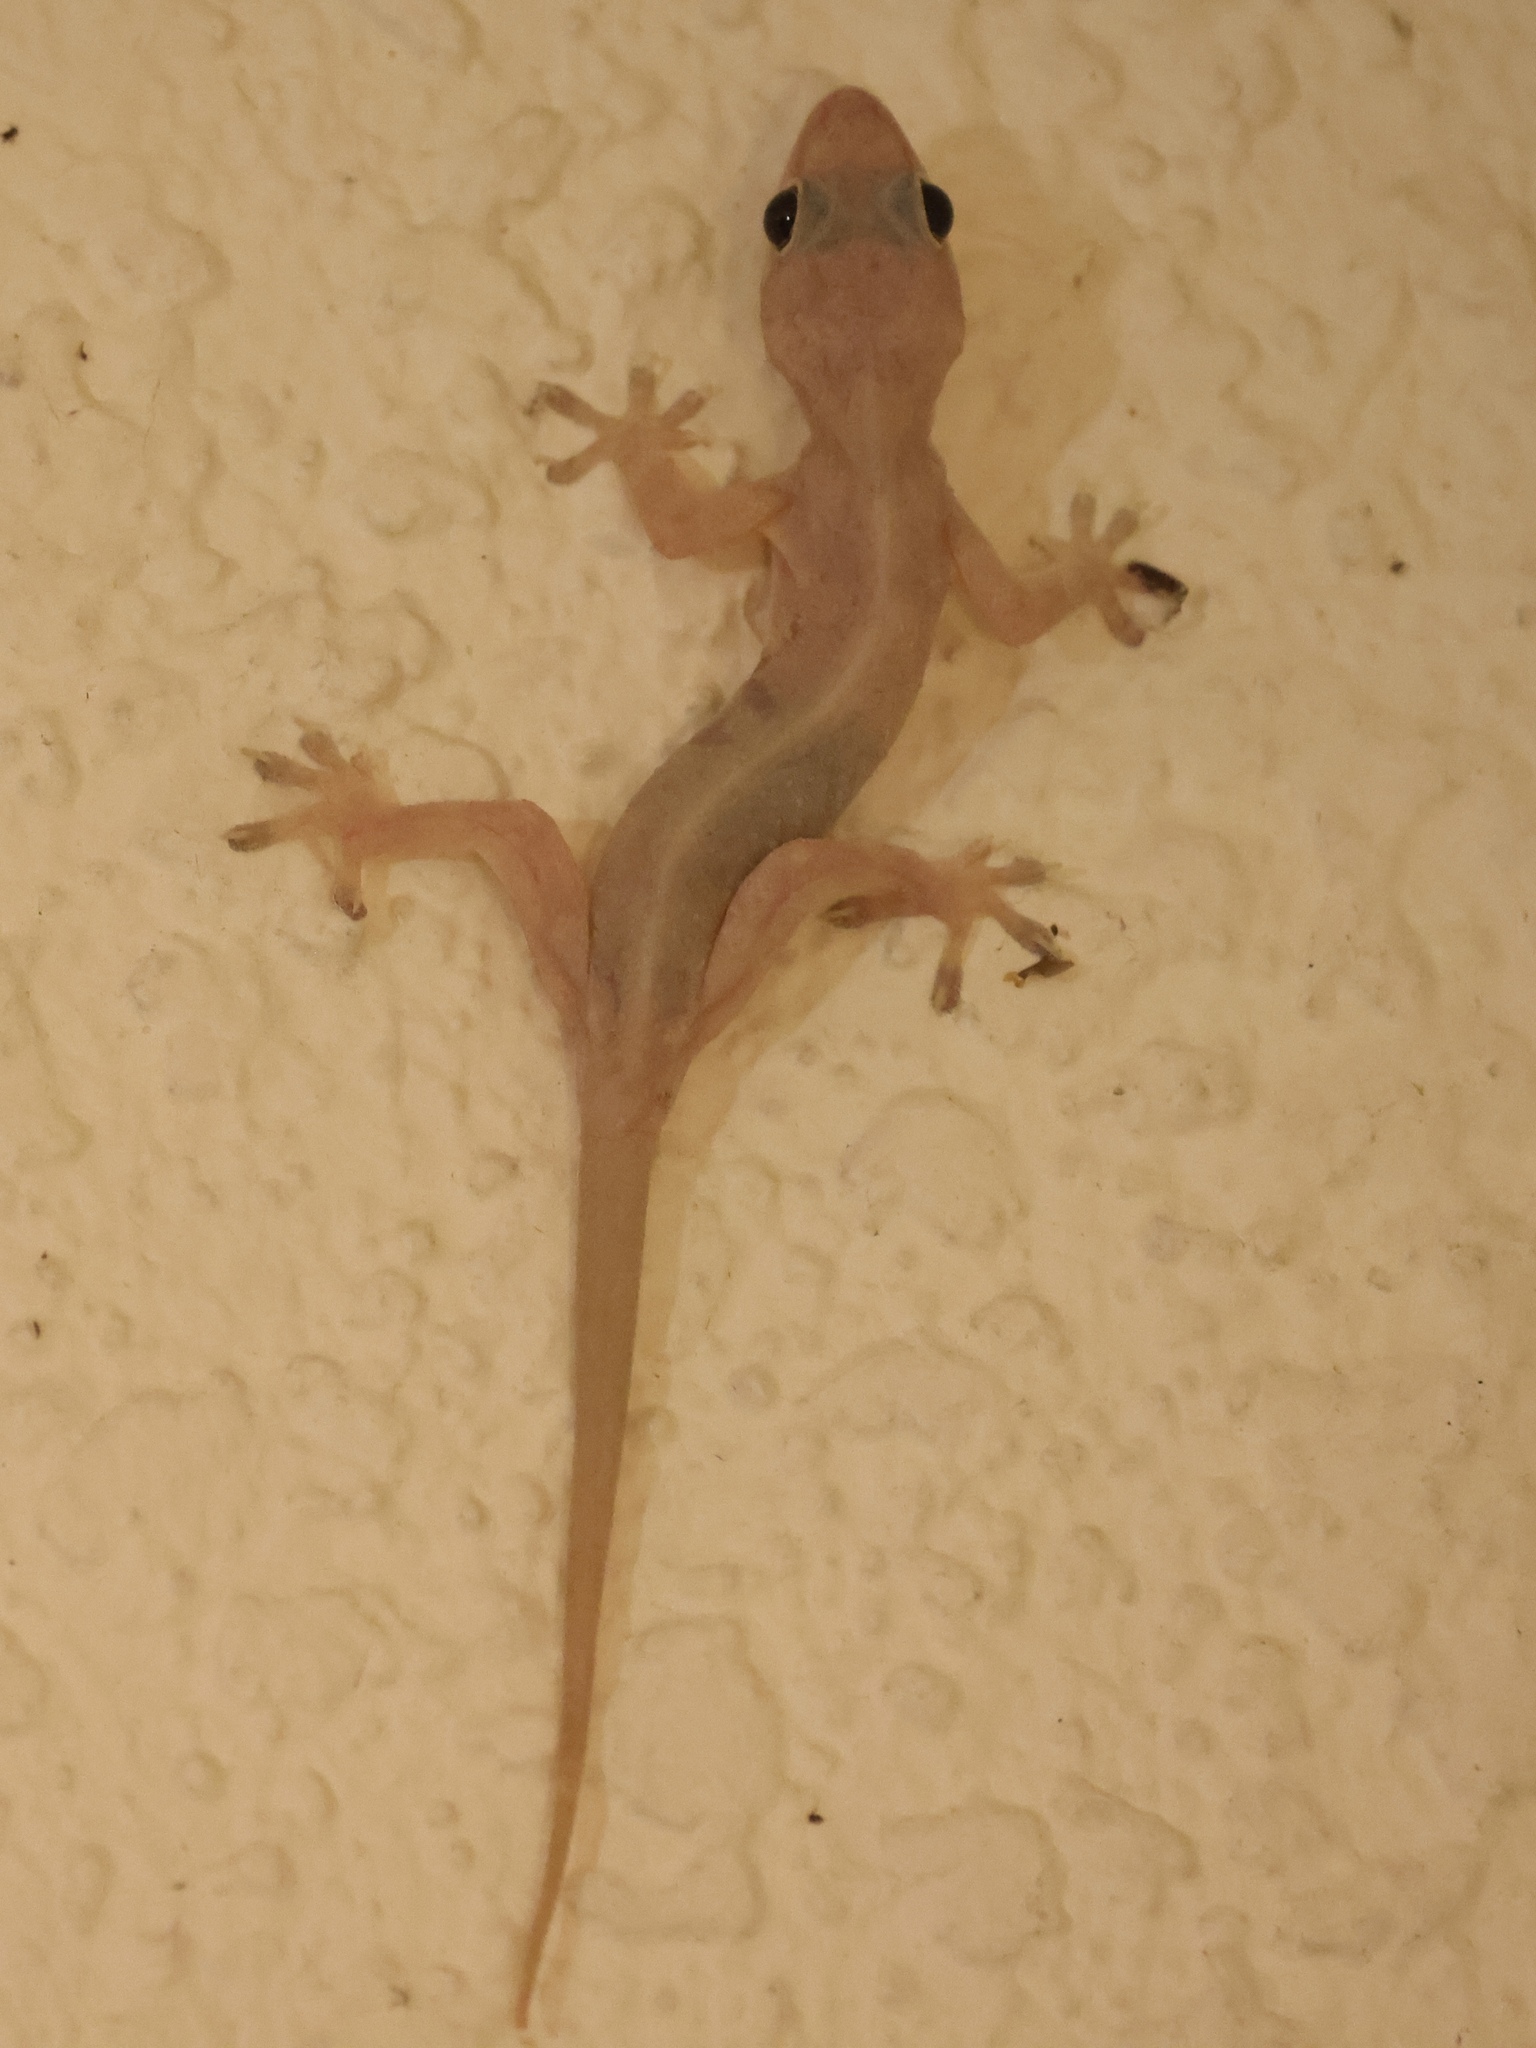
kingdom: Animalia
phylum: Chordata
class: Squamata
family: Gekkonidae
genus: Hemidactylus
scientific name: Hemidactylus mabouia
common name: House gecko
